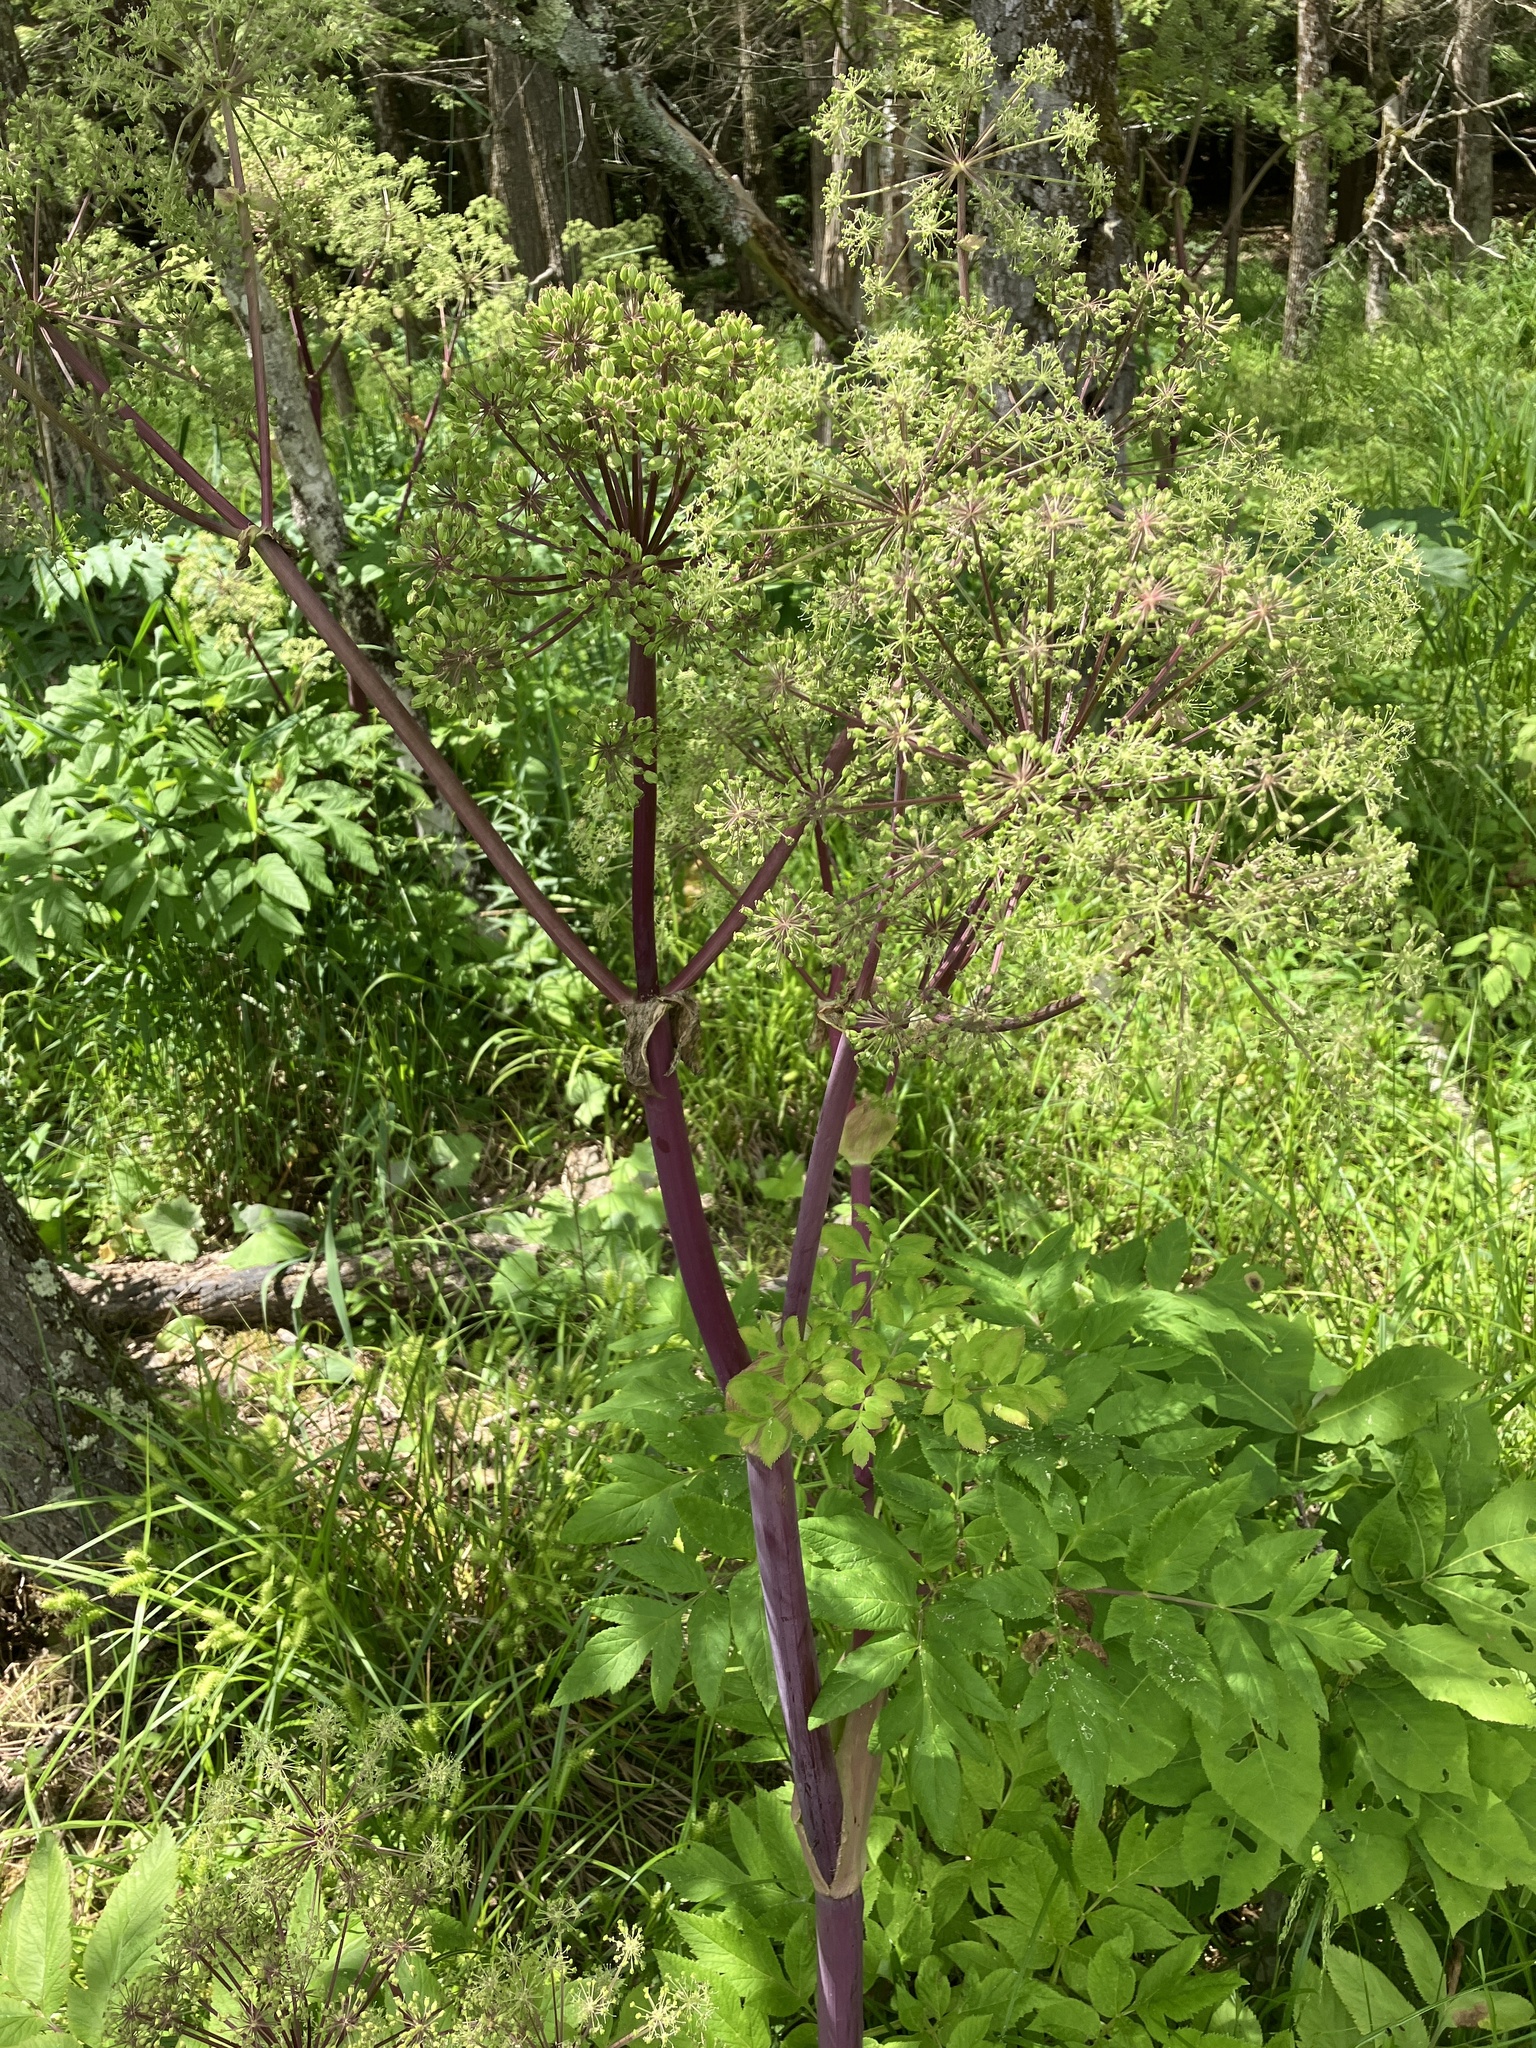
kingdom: Plantae
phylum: Tracheophyta
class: Magnoliopsida
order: Apiales
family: Apiaceae
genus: Angelica
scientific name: Angelica atropurpurea
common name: Great angelica
